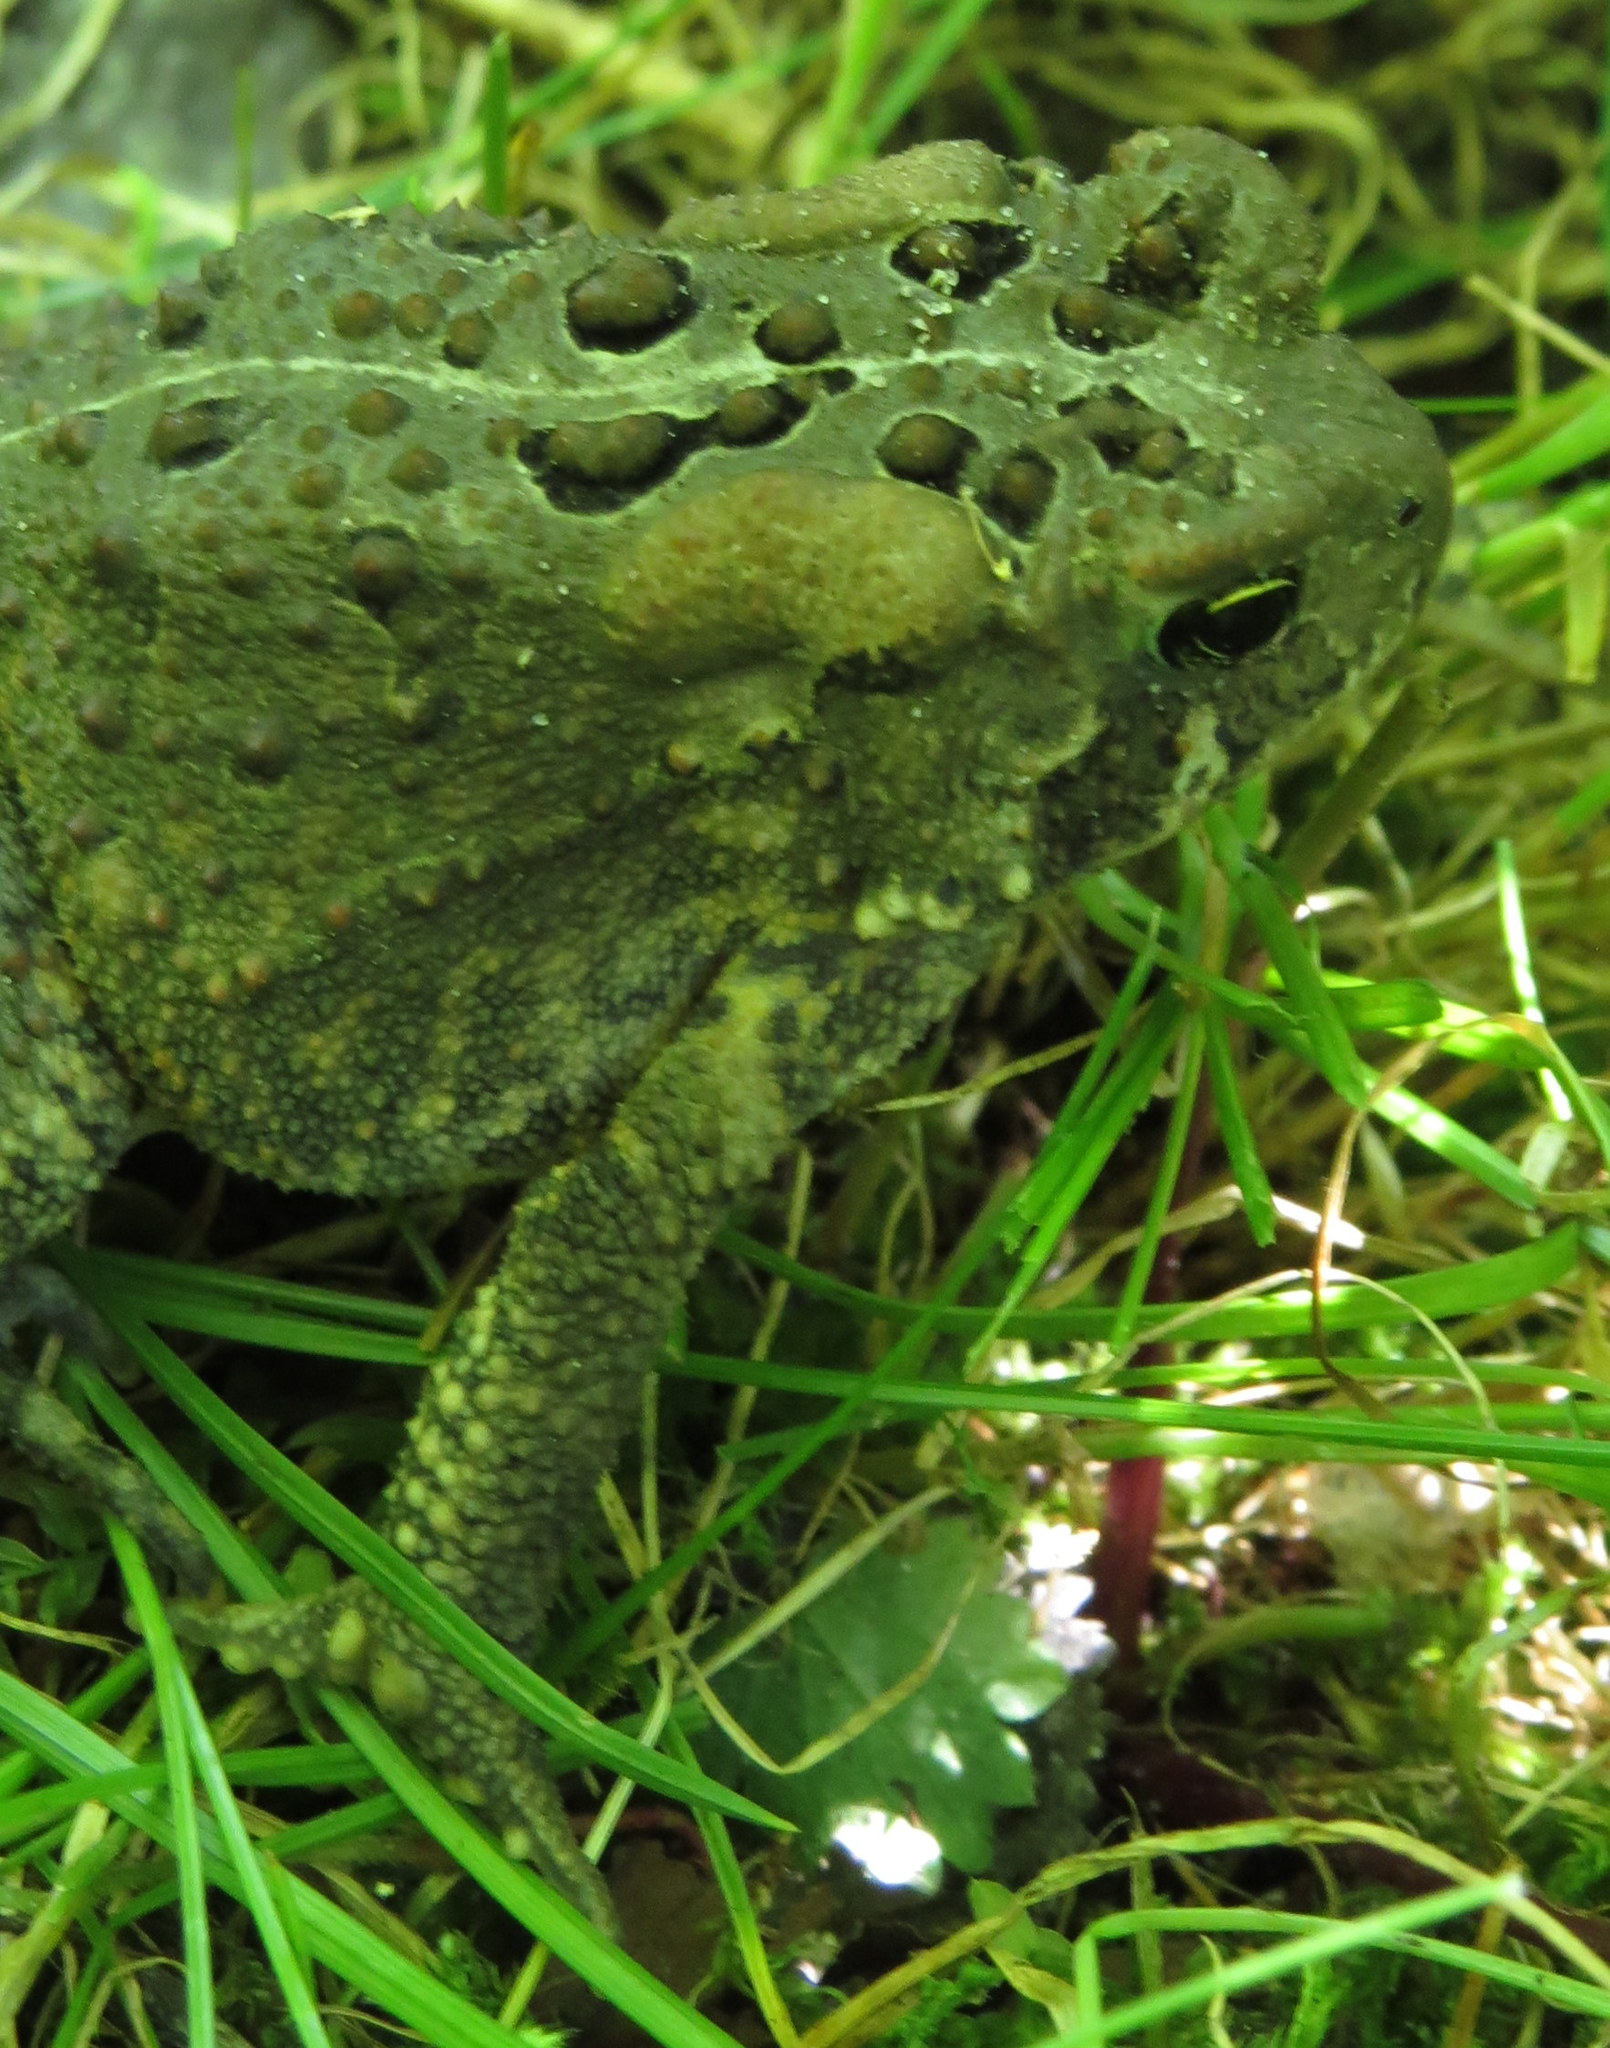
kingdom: Animalia
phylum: Chordata
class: Amphibia
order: Anura
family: Bufonidae
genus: Anaxyrus
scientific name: Anaxyrus americanus
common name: American toad
